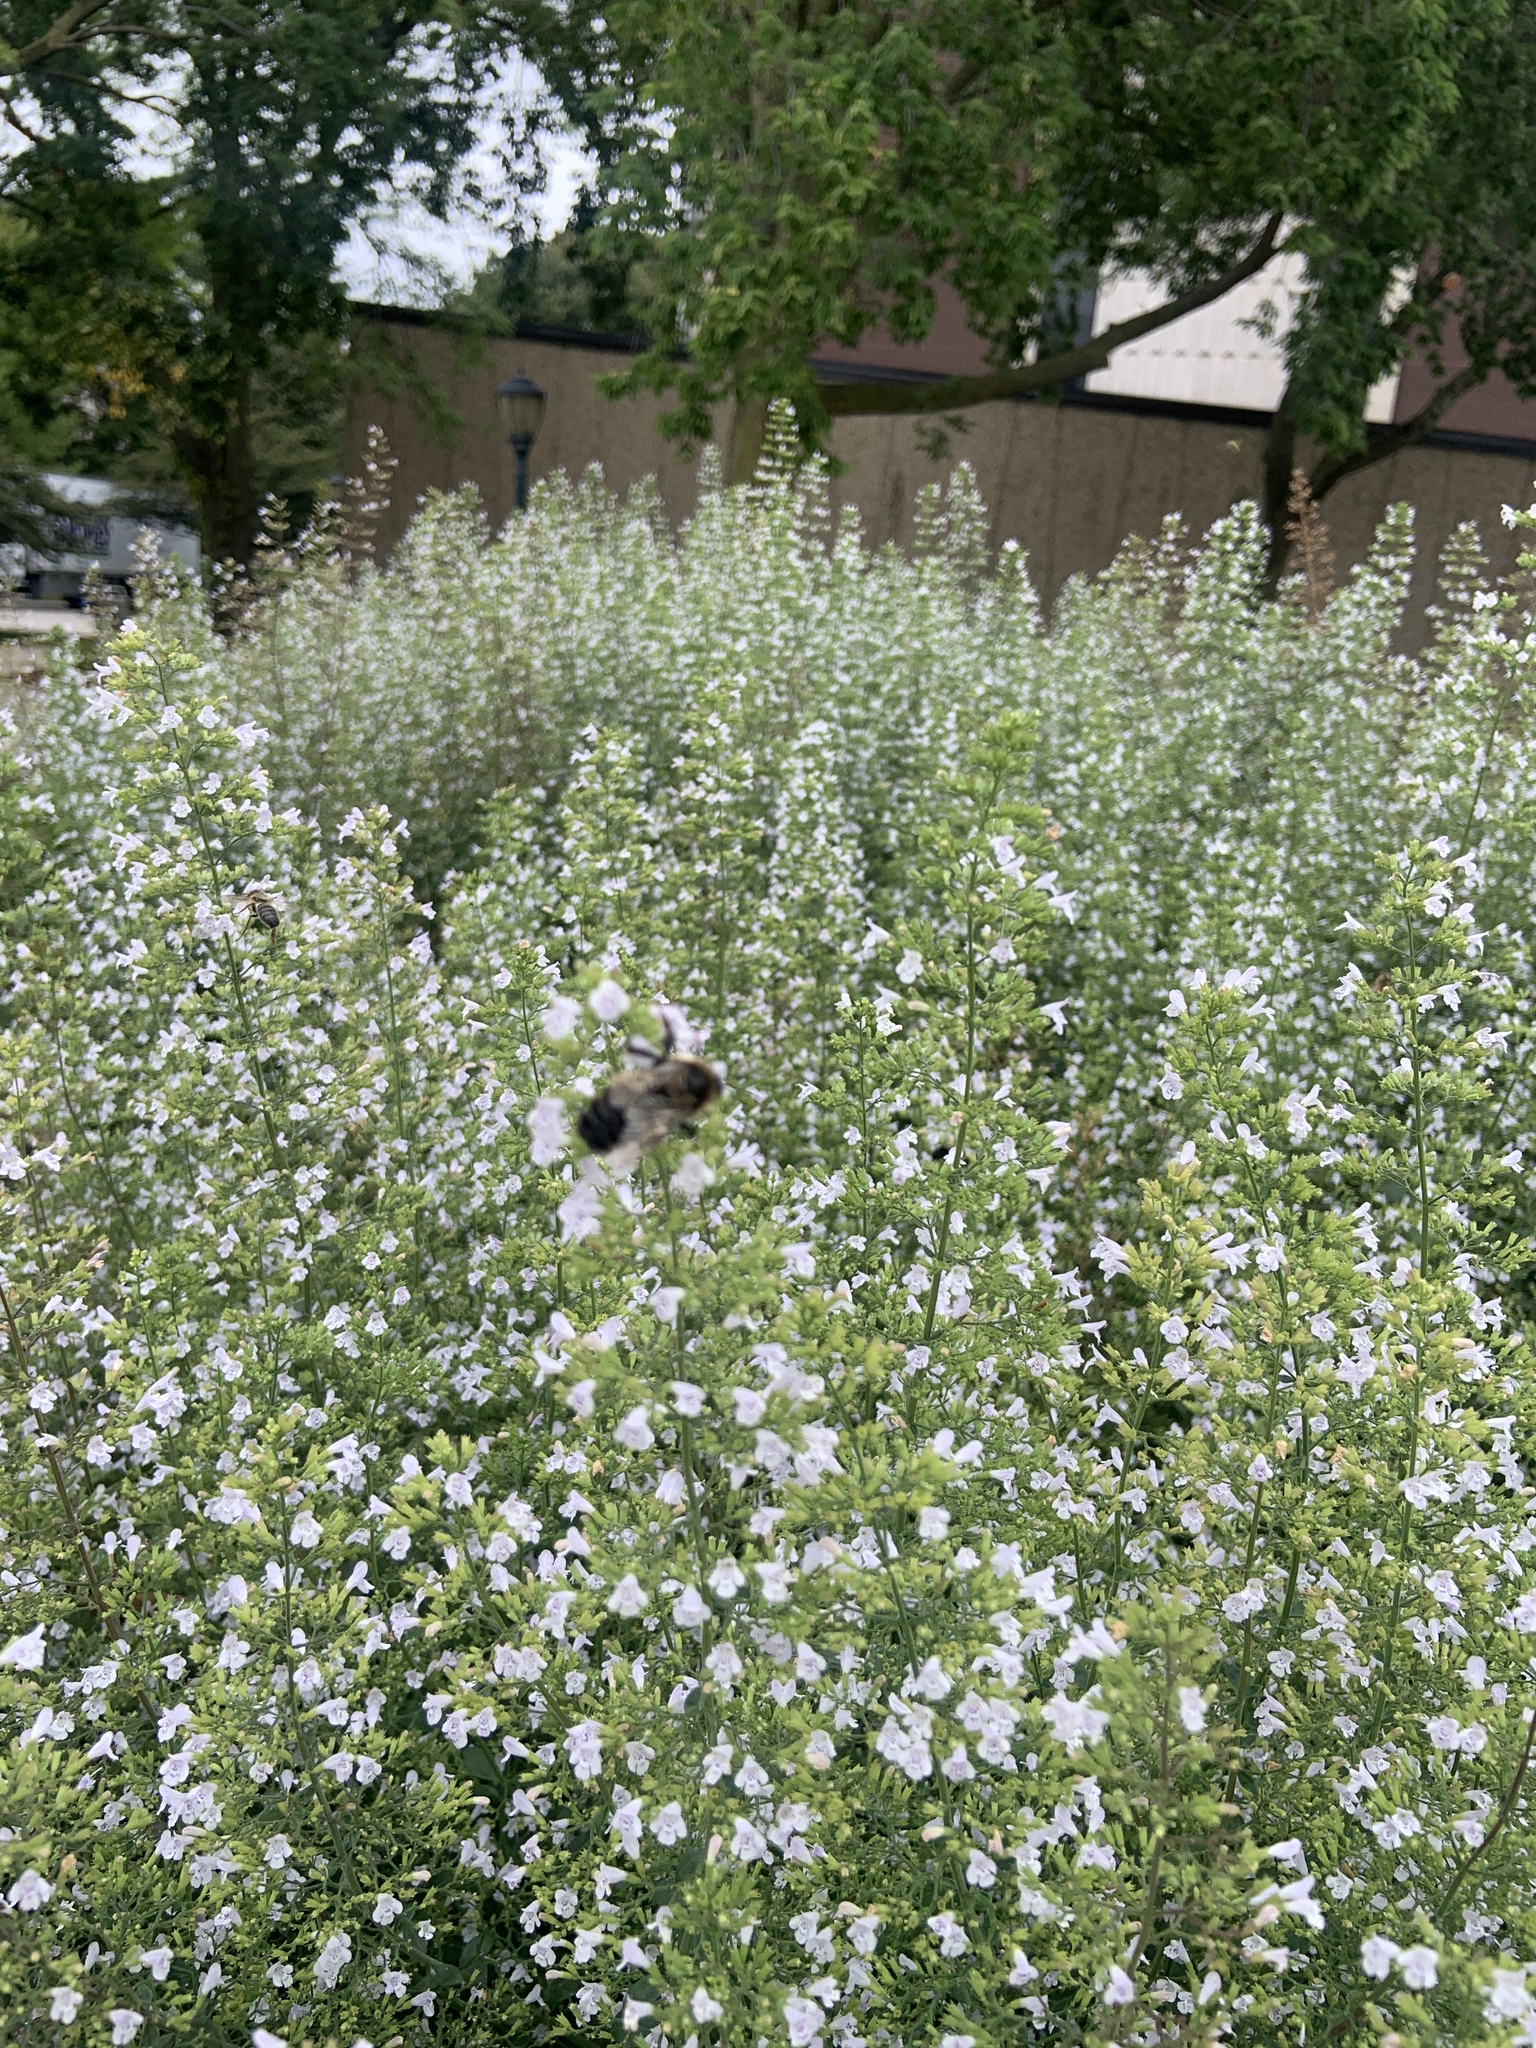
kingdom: Animalia
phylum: Arthropoda
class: Insecta
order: Hymenoptera
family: Apidae
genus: Bombus
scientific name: Bombus rufocinctus
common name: Red-belted bumble bee
